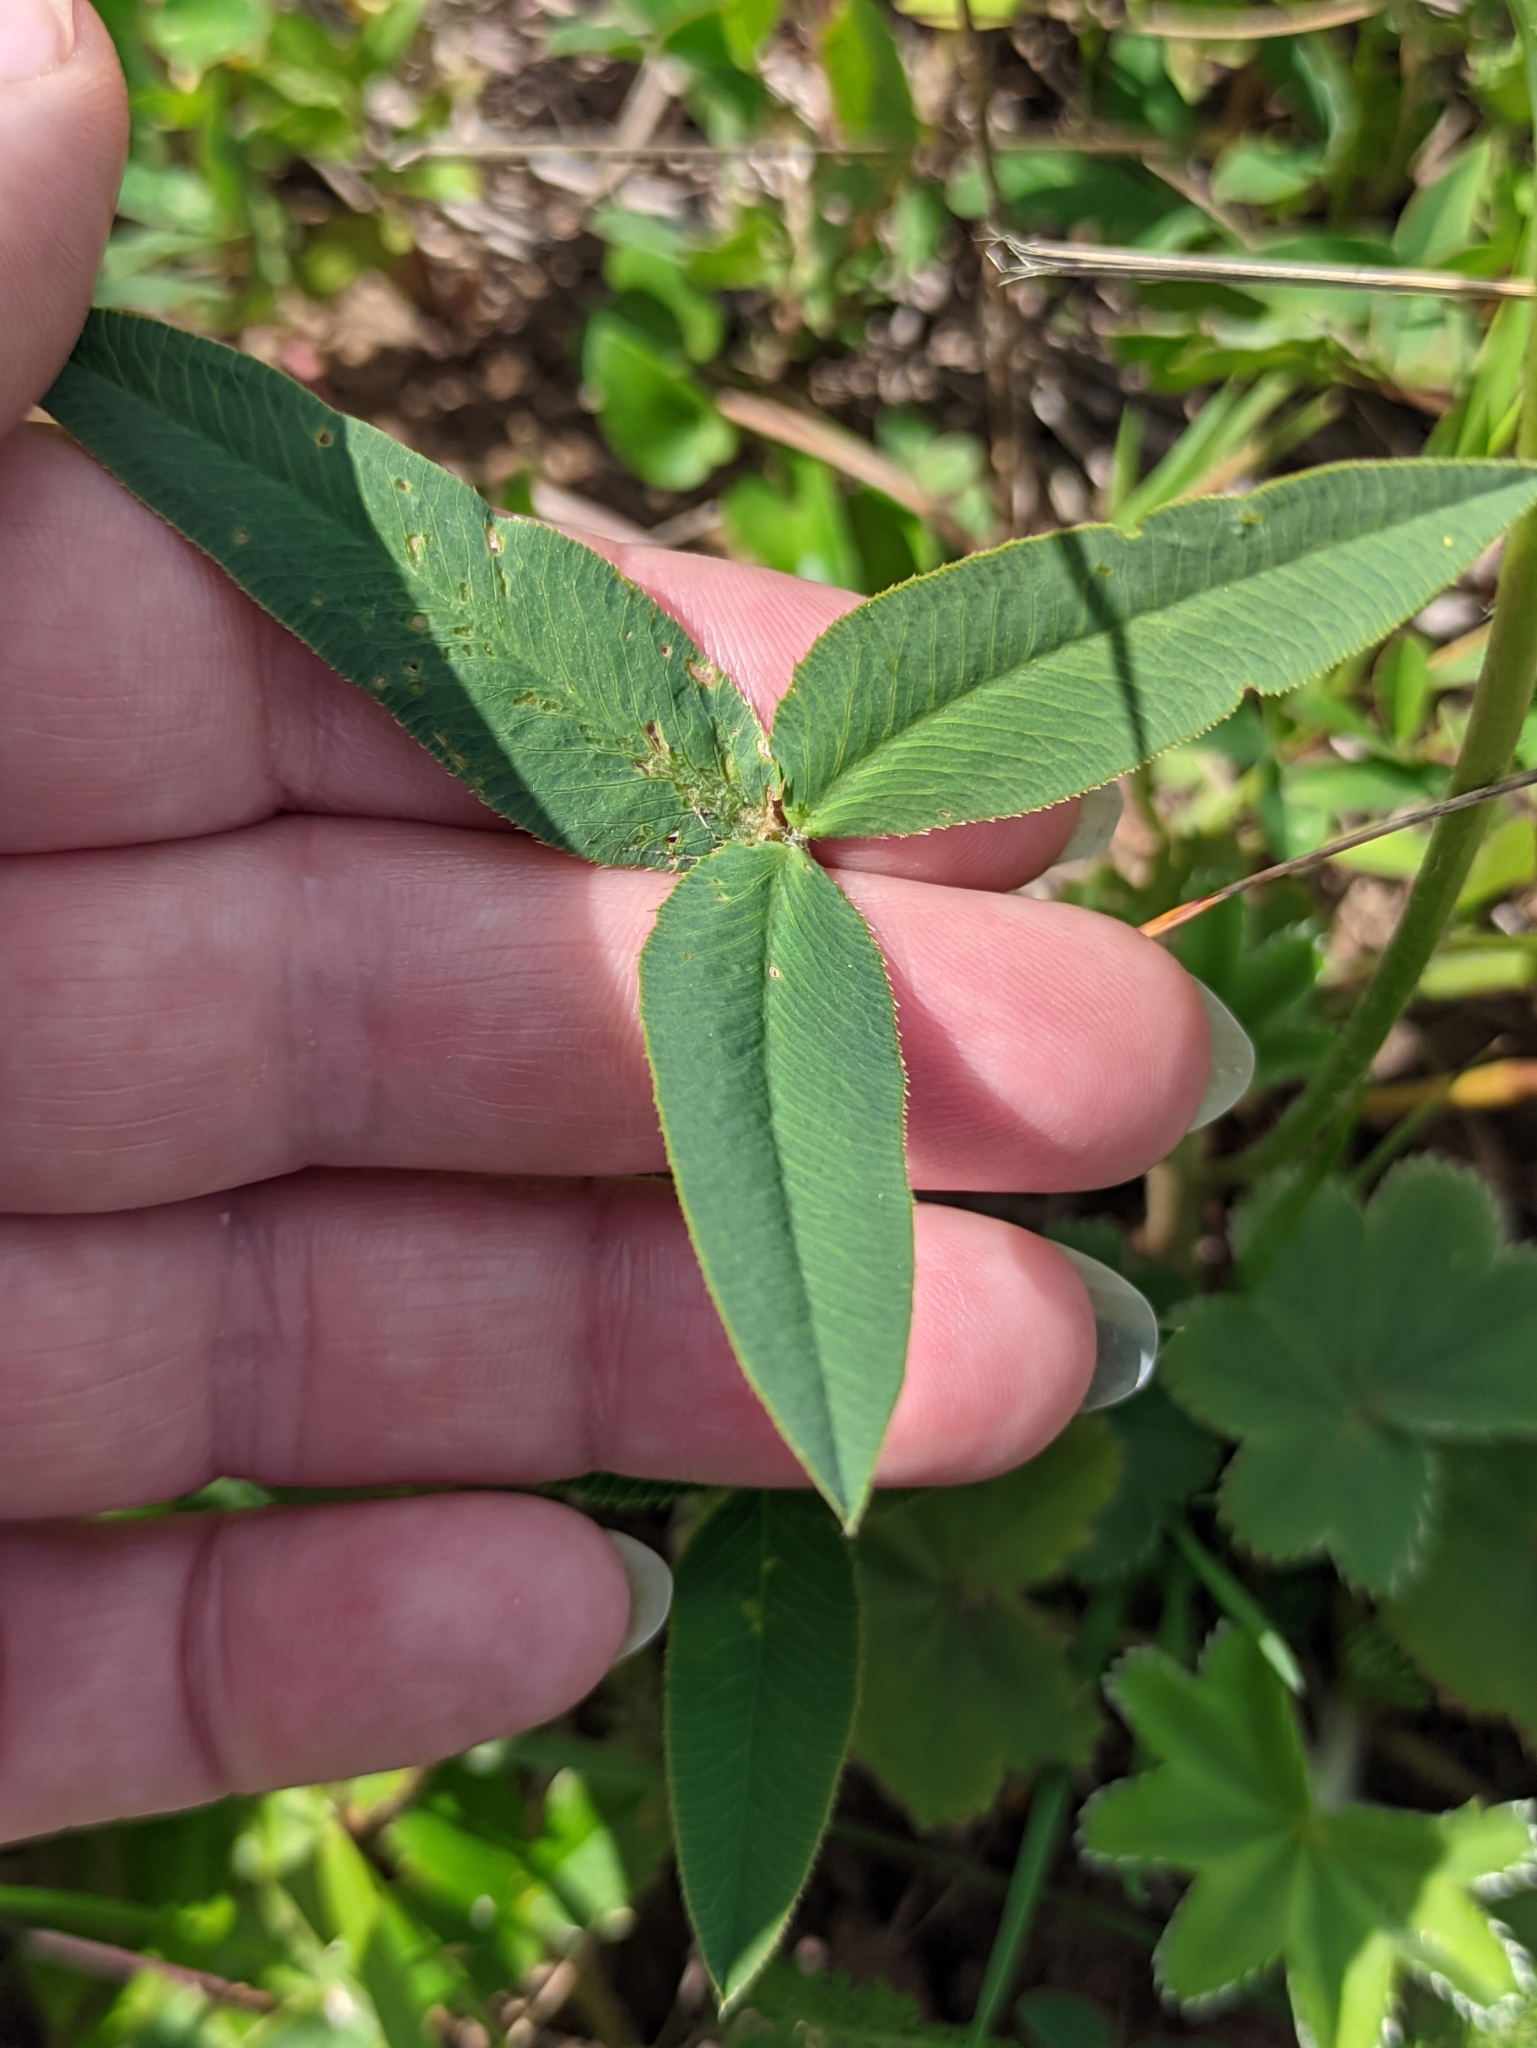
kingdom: Plantae
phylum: Tracheophyta
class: Magnoliopsida
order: Fabales
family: Fabaceae
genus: Trifolium
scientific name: Trifolium montanum
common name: Mountain clover
